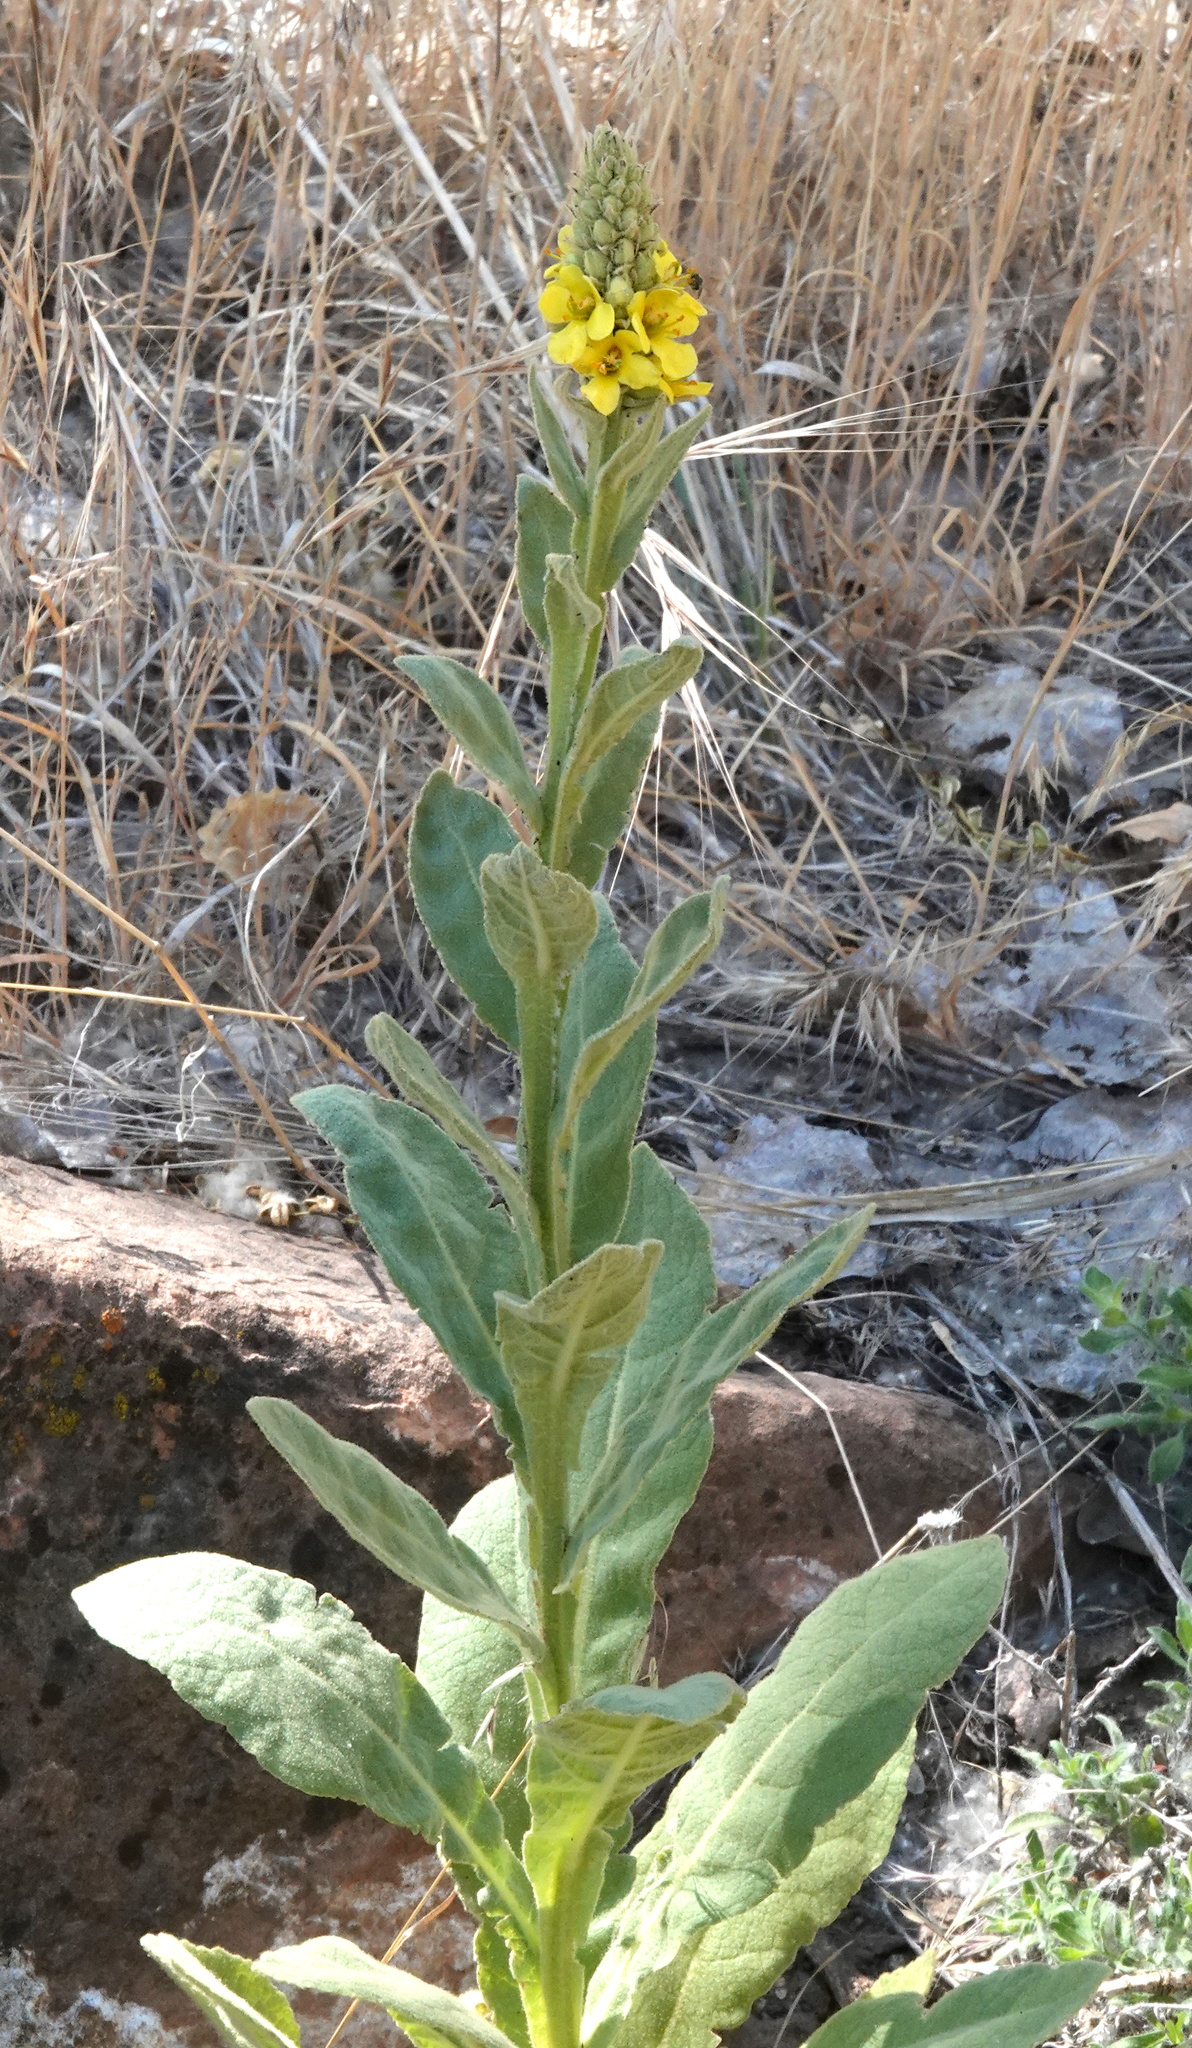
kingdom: Plantae
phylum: Tracheophyta
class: Magnoliopsida
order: Lamiales
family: Scrophulariaceae
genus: Verbascum
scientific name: Verbascum thapsus
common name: Common mullein
